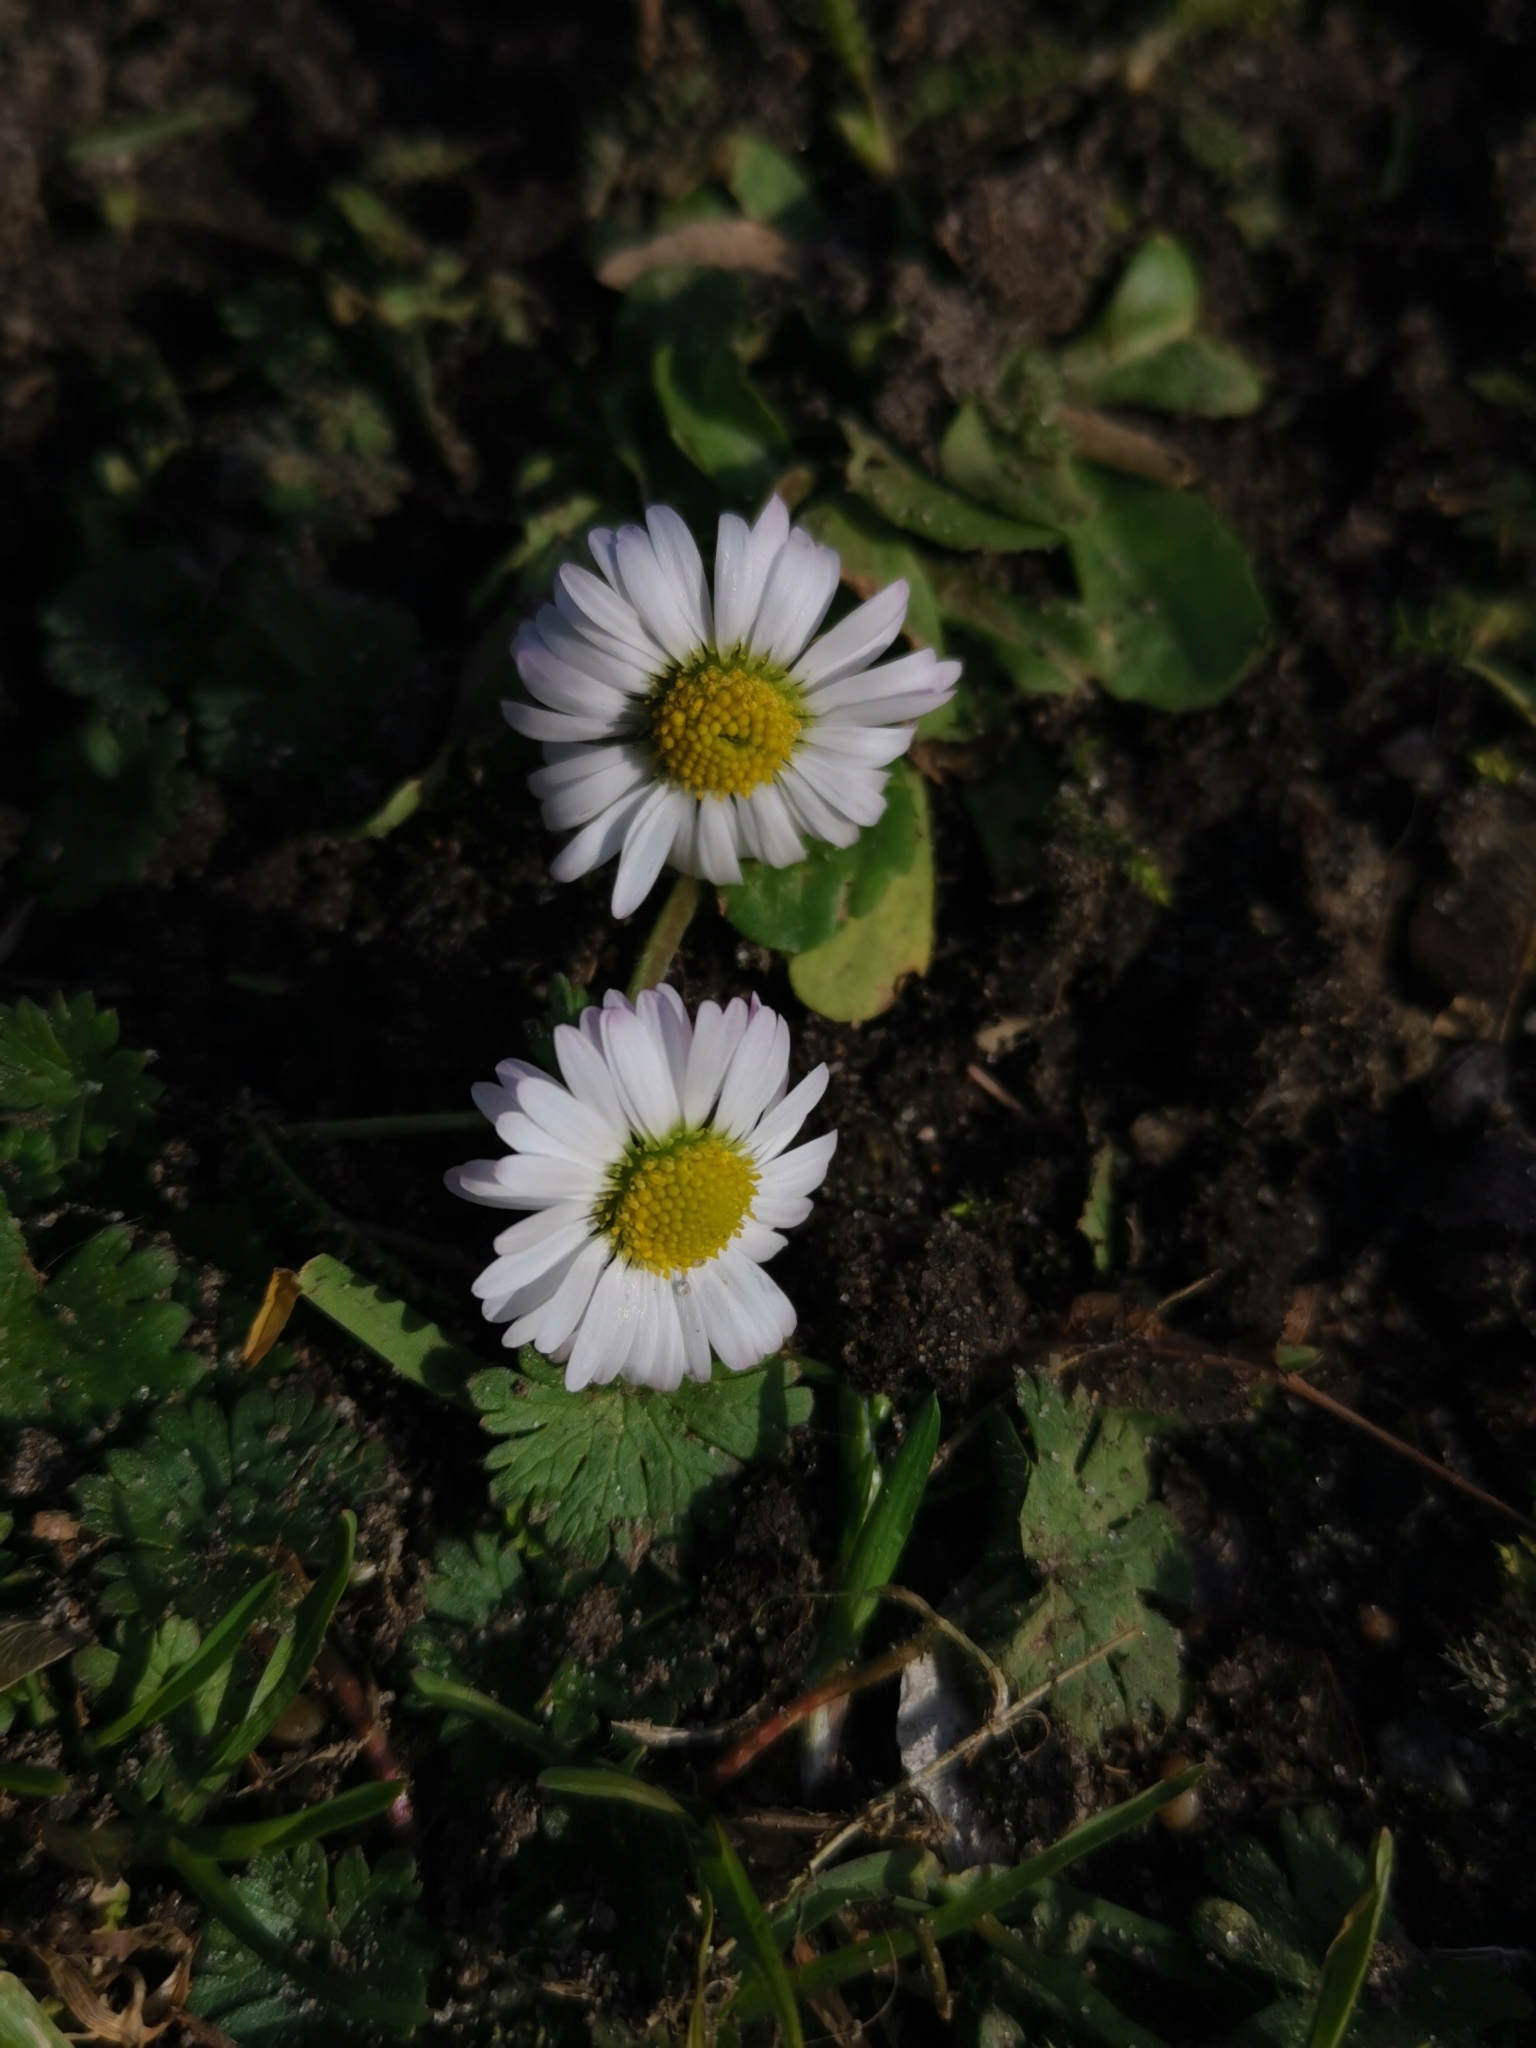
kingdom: Plantae
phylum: Tracheophyta
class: Magnoliopsida
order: Asterales
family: Asteraceae
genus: Bellis
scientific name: Bellis perennis
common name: Lawndaisy
